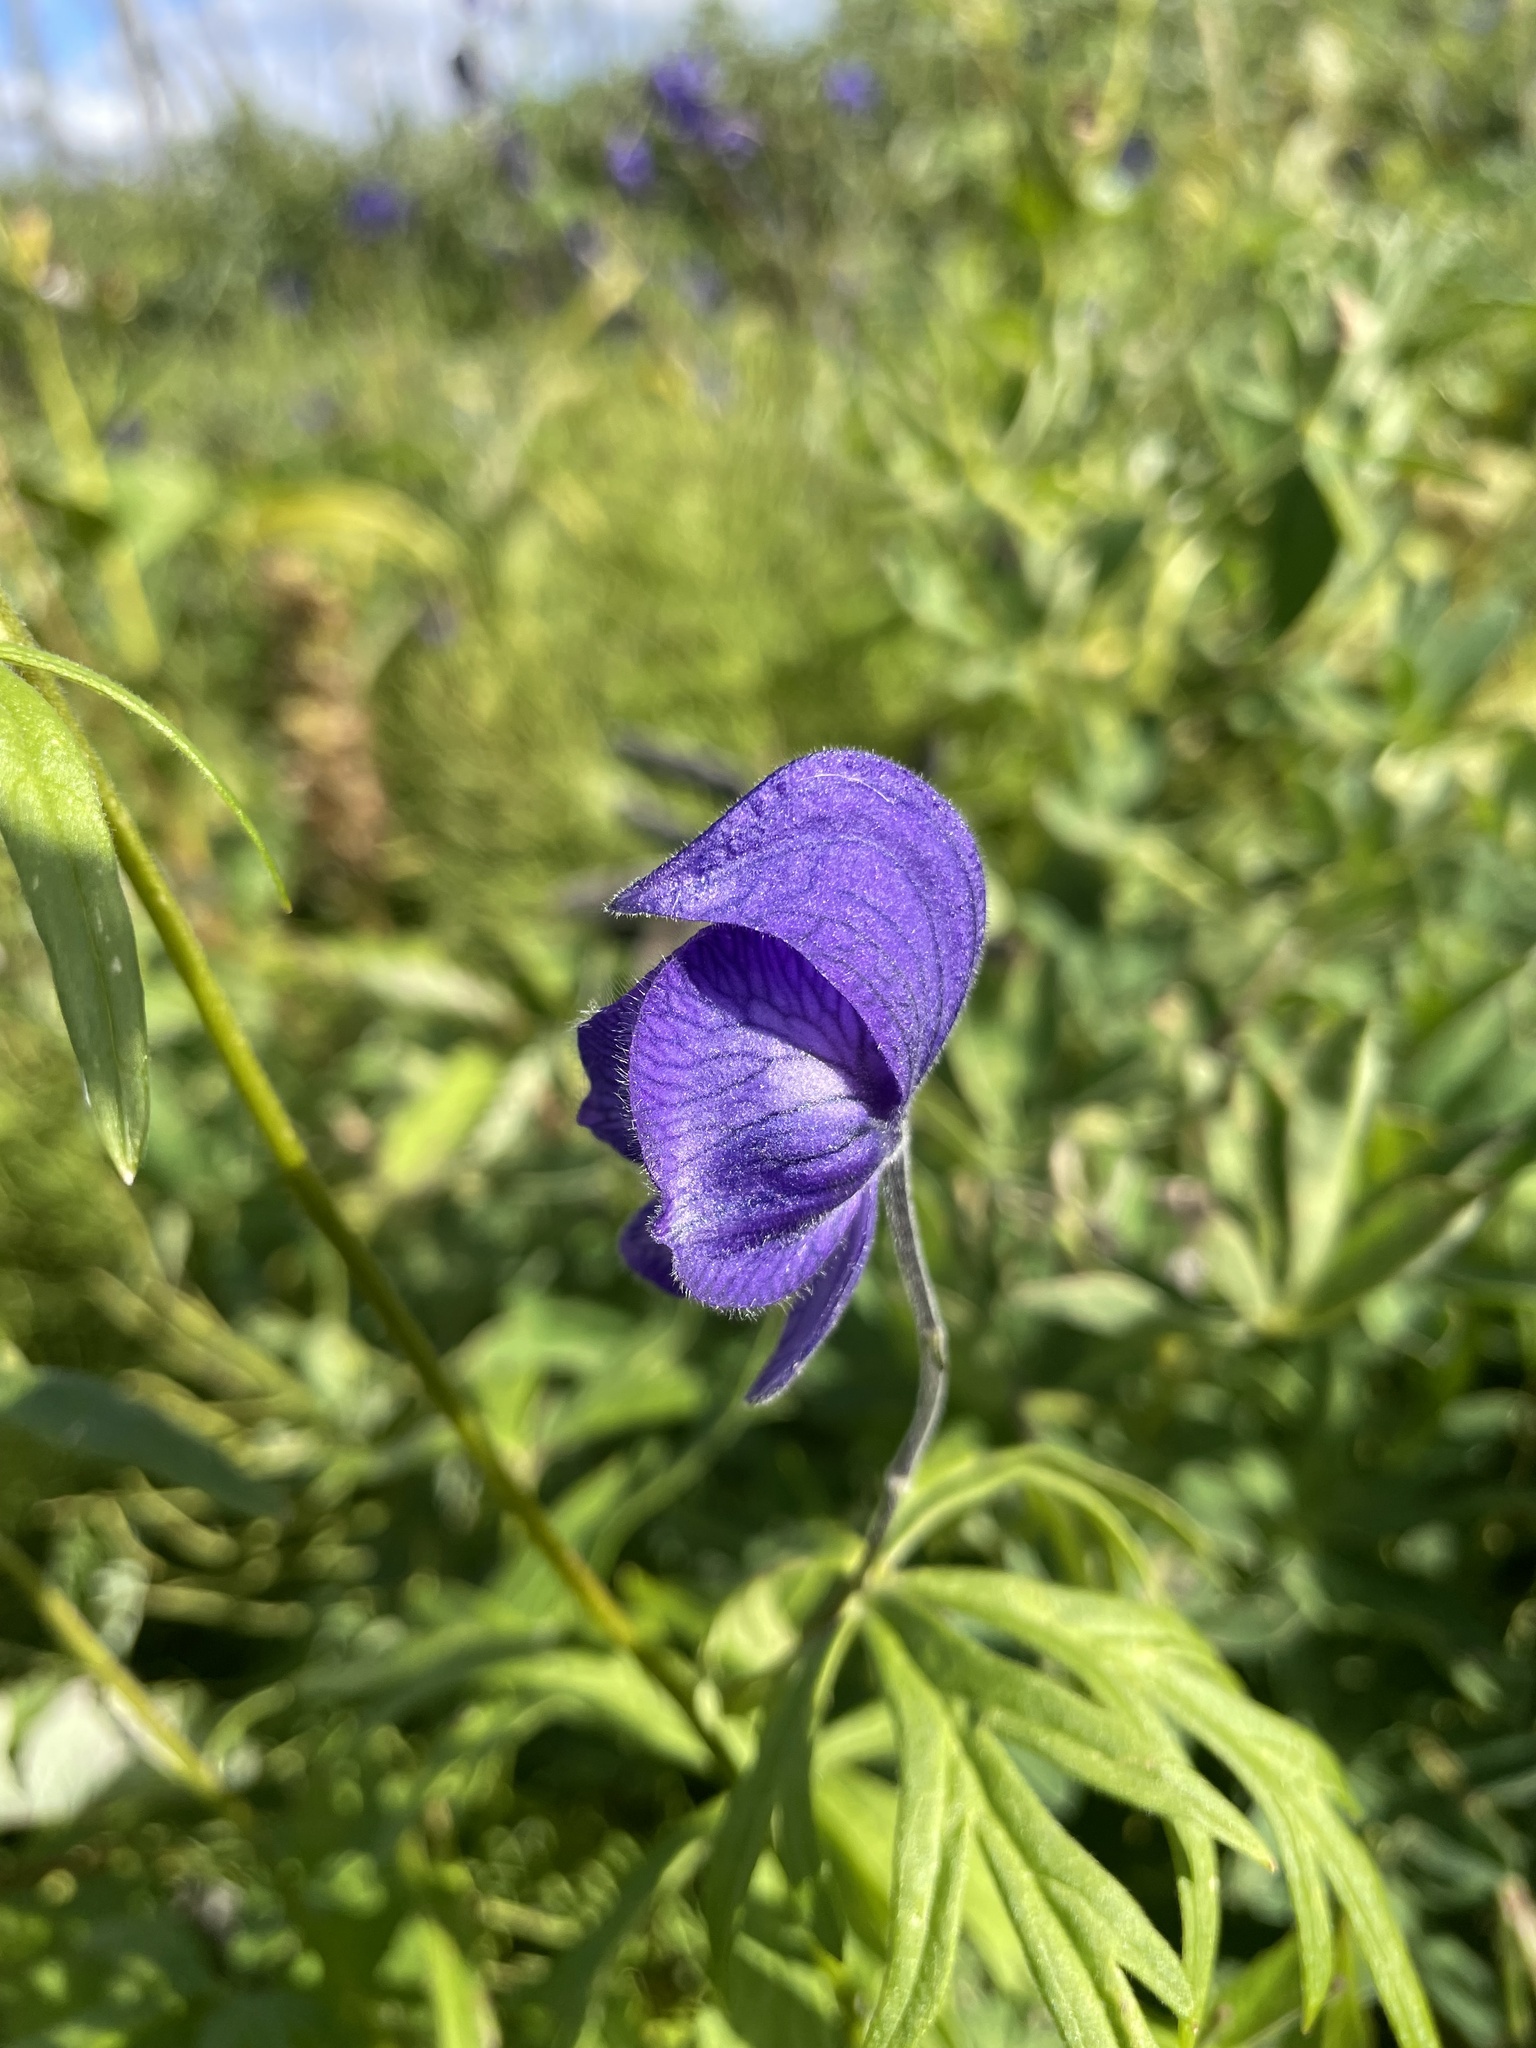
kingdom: Plantae
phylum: Tracheophyta
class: Magnoliopsida
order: Ranunculales
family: Ranunculaceae
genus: Aconitum
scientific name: Aconitum delphiniifolium
